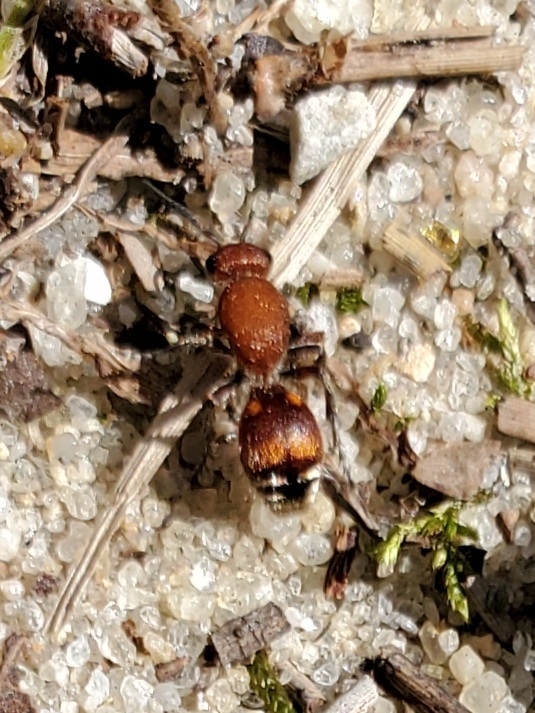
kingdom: Animalia
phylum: Arthropoda
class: Insecta
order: Hymenoptera
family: Mutillidae
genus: Dasymutilla
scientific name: Dasymutilla
